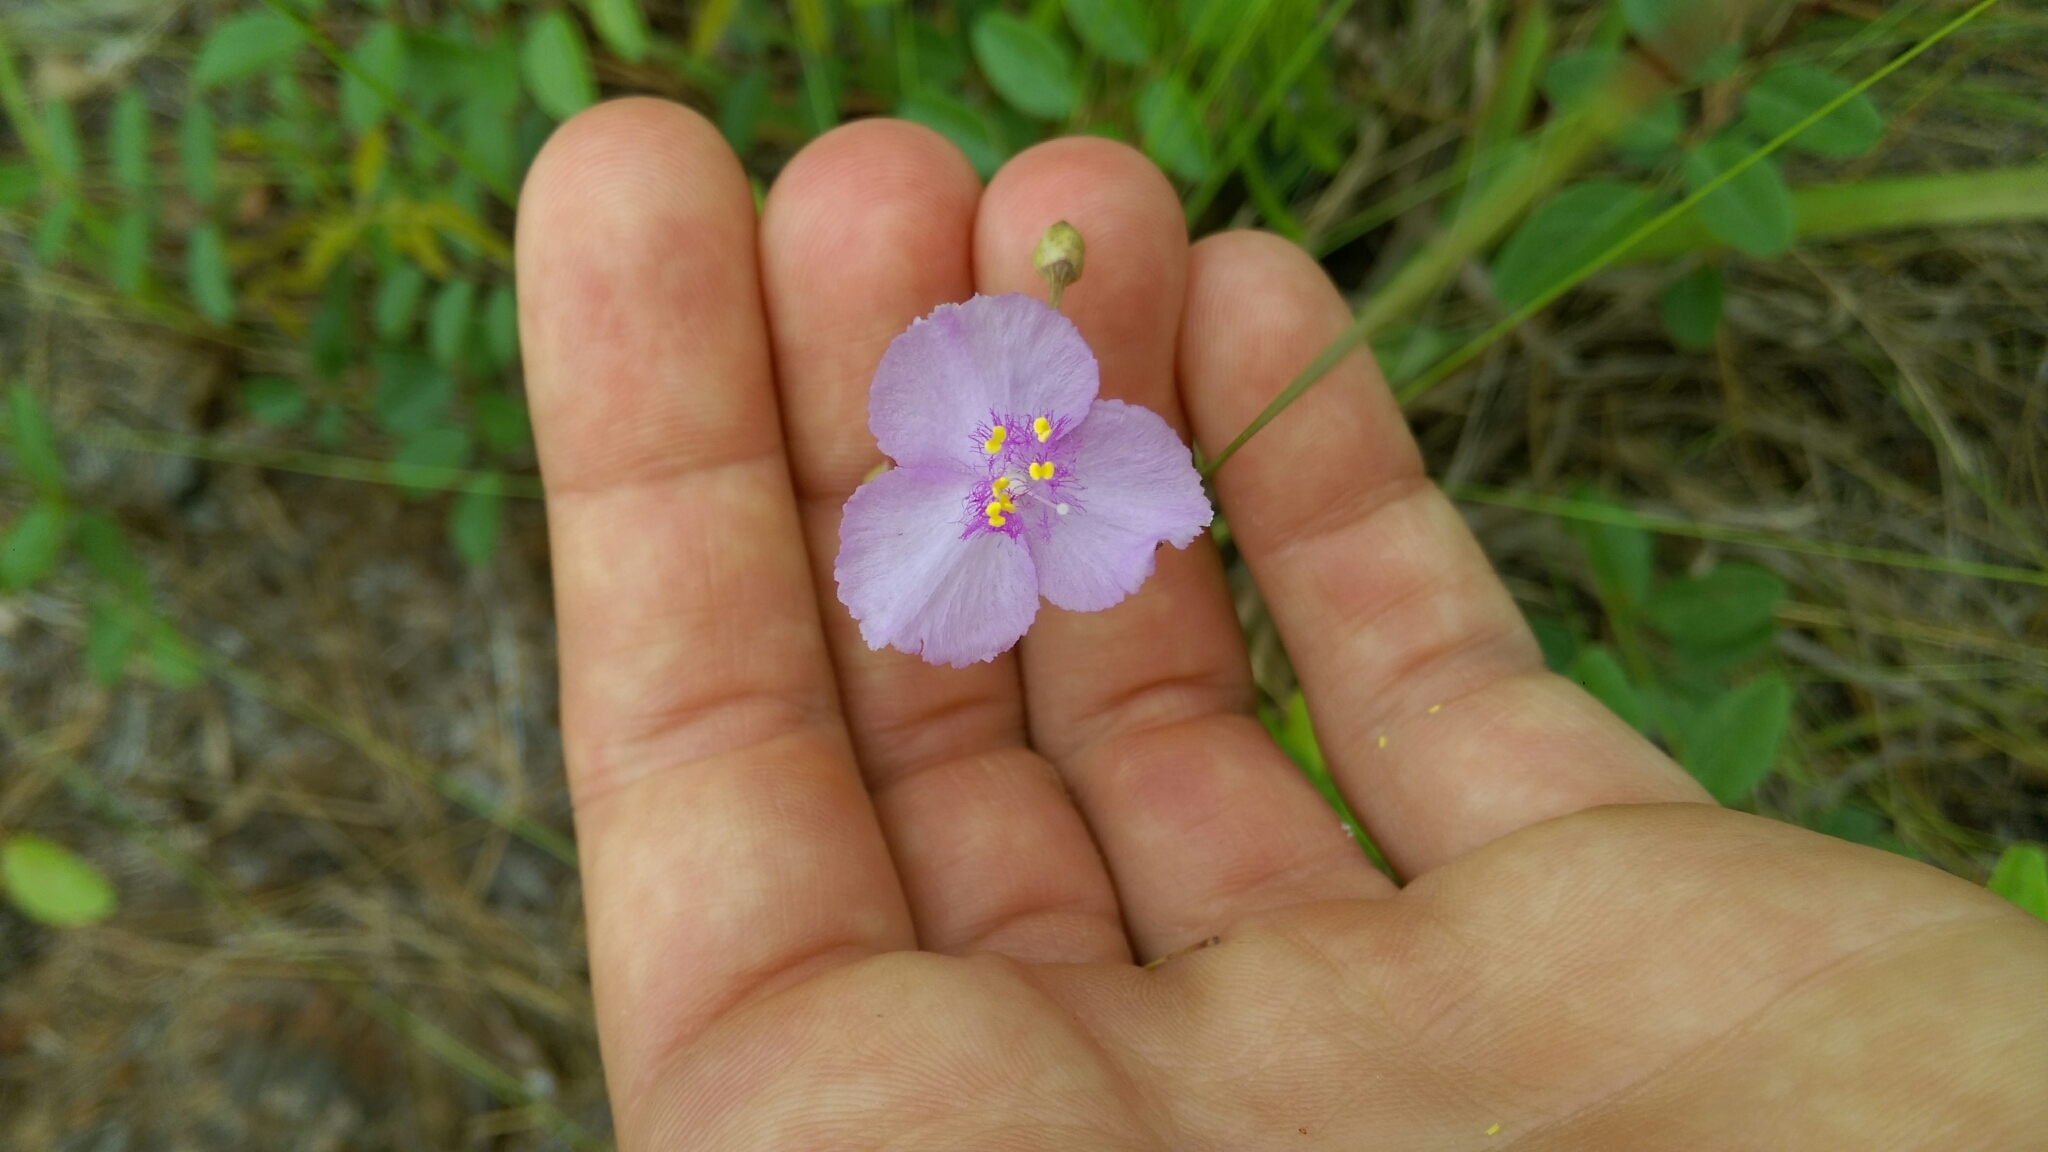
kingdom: Plantae
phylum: Tracheophyta
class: Liliopsida
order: Commelinales
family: Commelinaceae
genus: Callisia
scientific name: Callisia ornata
